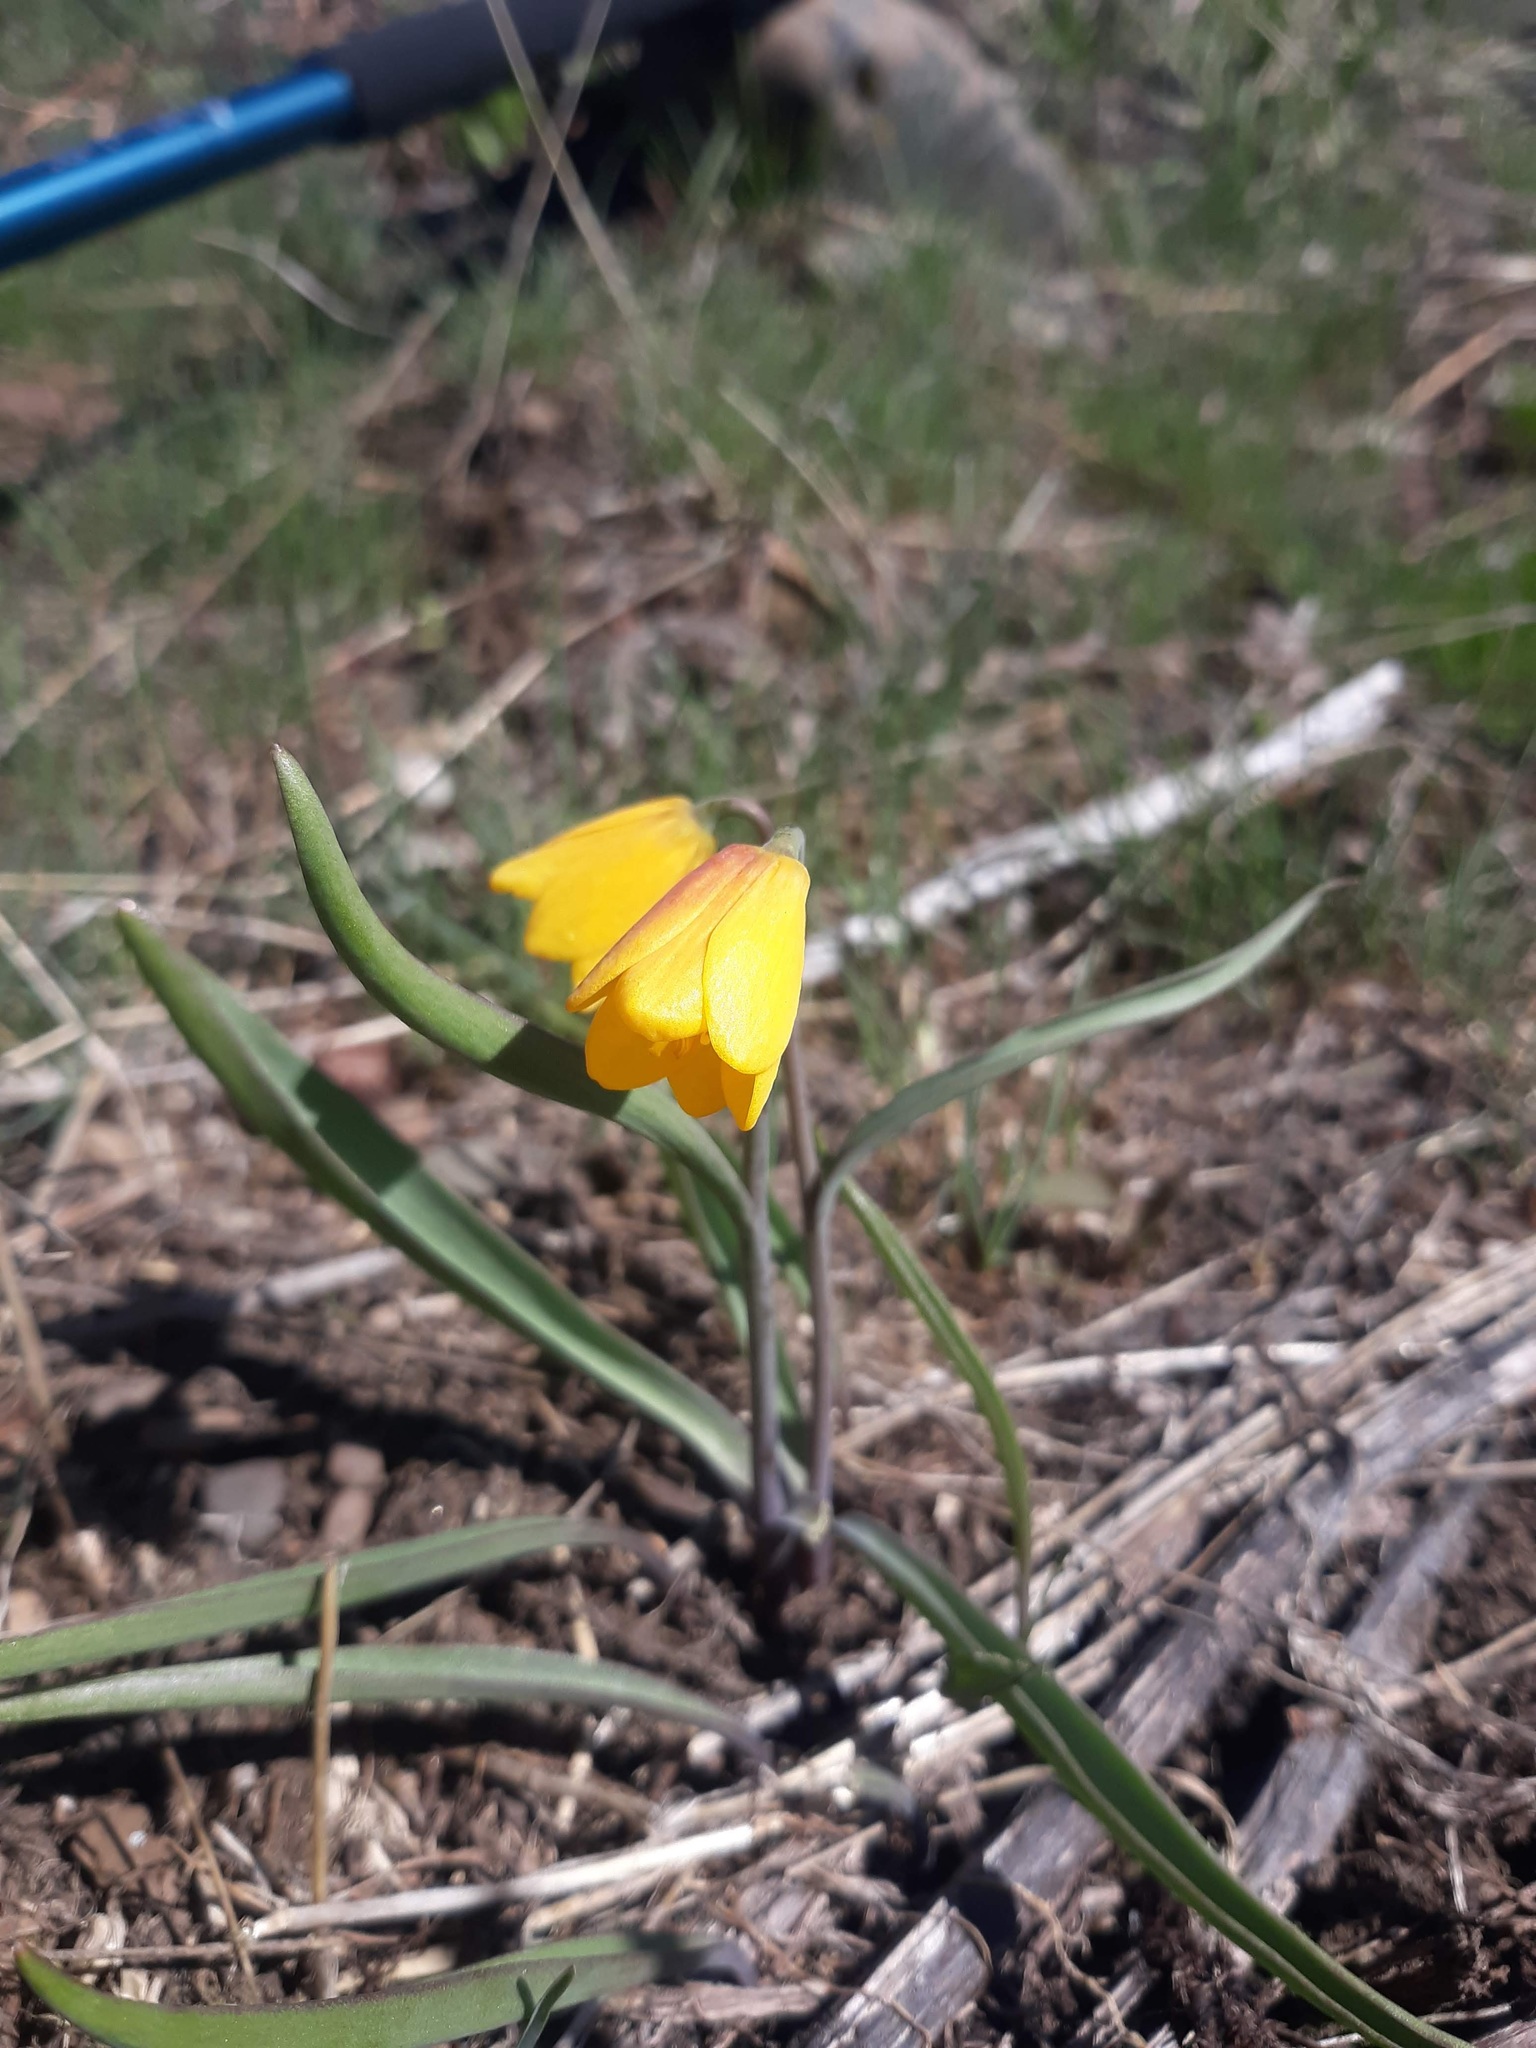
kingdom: Plantae
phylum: Tracheophyta
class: Liliopsida
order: Liliales
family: Liliaceae
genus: Fritillaria
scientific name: Fritillaria pudica
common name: Yellow fritillary
